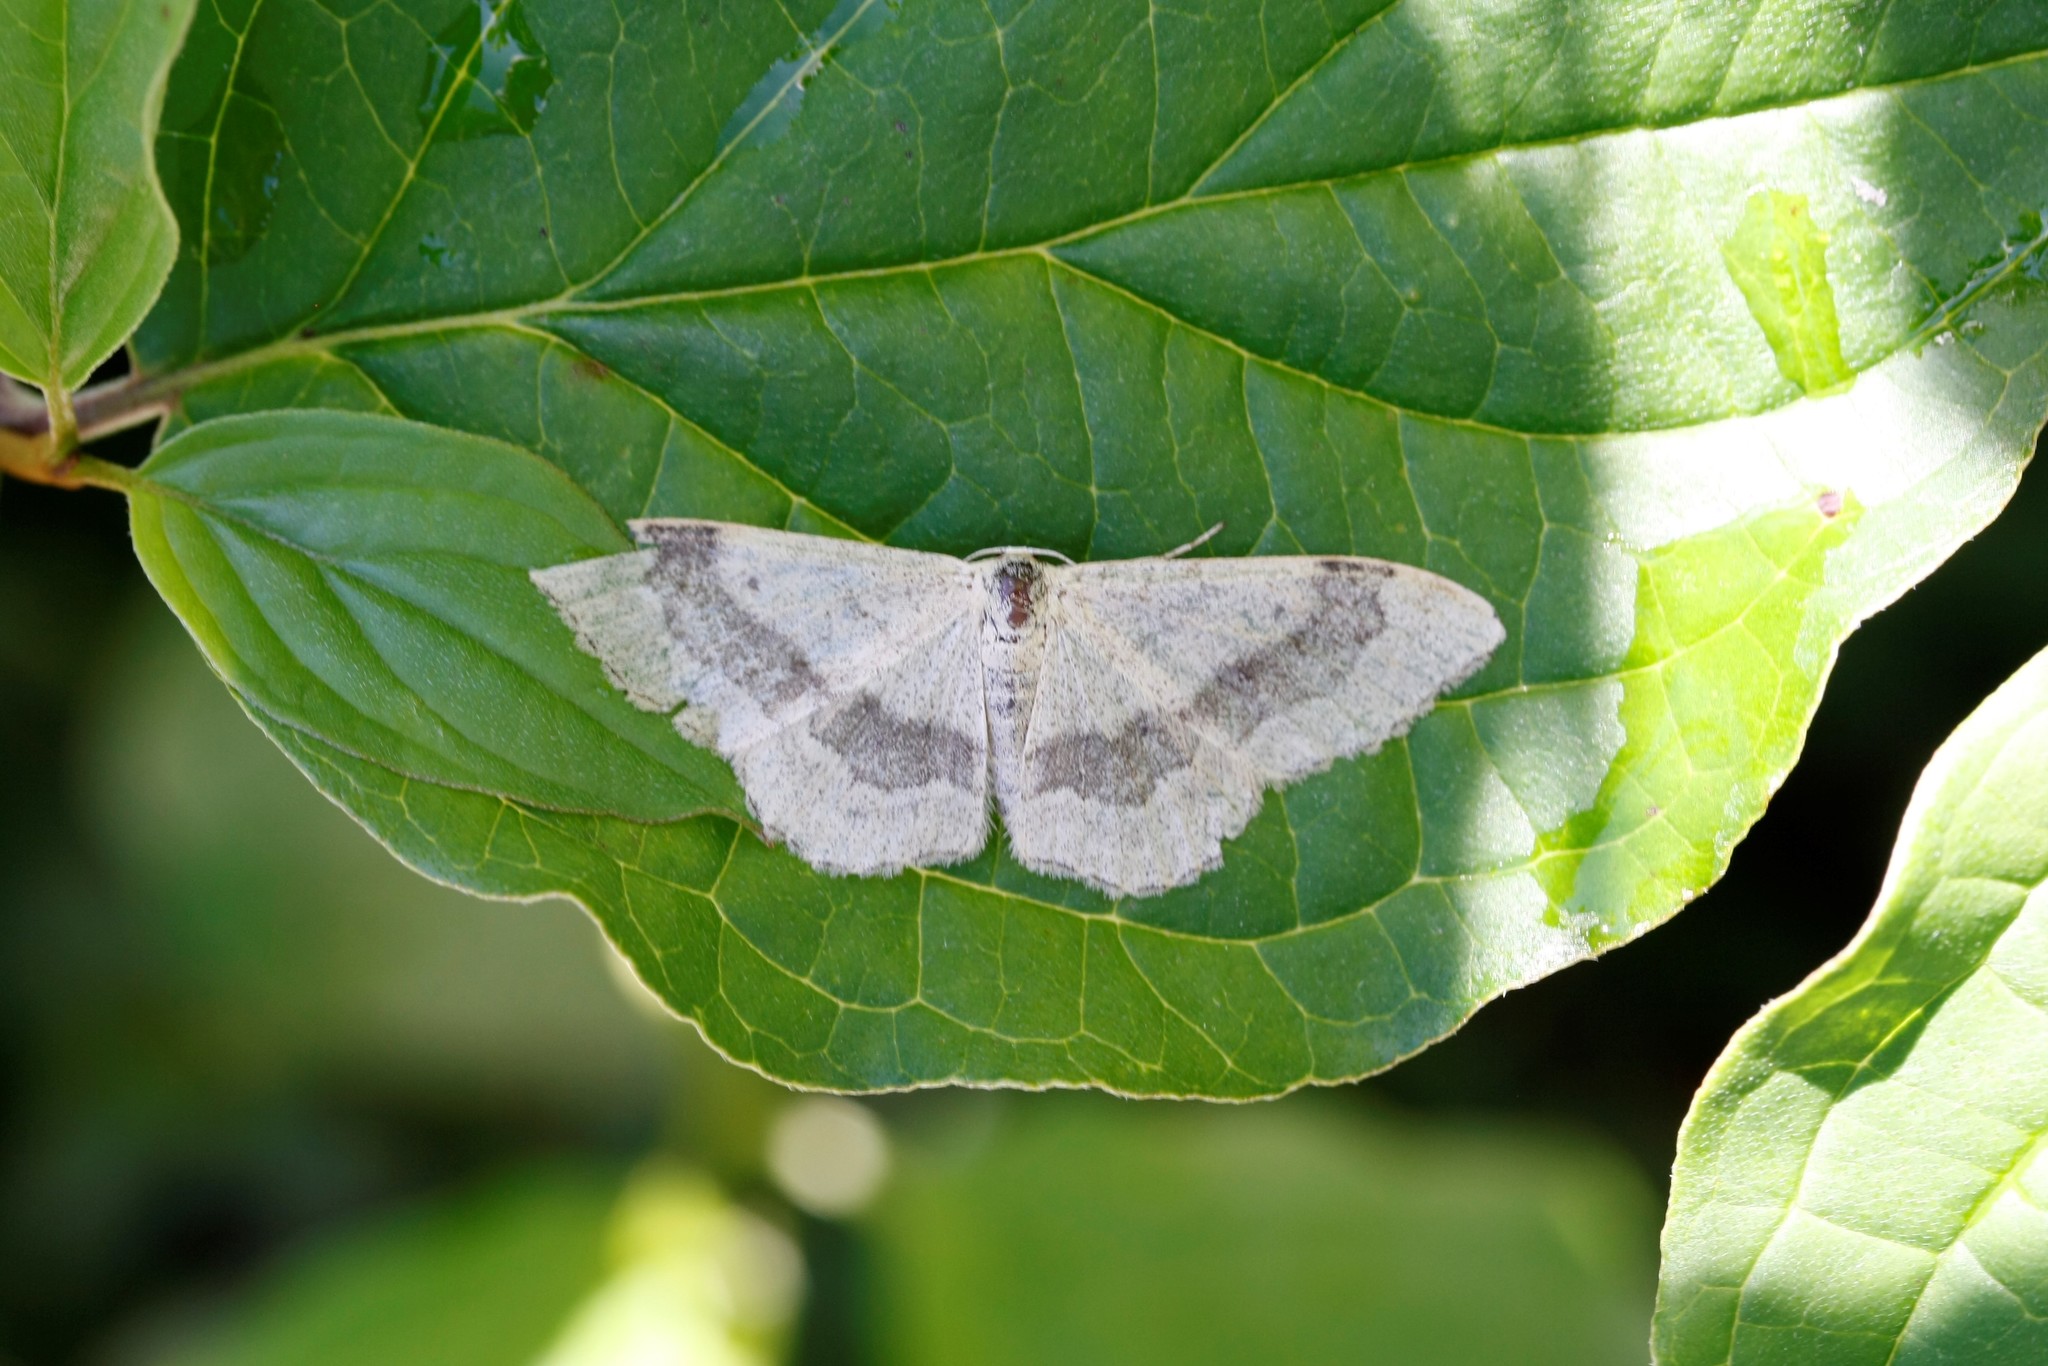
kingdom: Animalia
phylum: Arthropoda
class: Insecta
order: Lepidoptera
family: Geometridae
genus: Idaea
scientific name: Idaea aversata
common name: Riband wave
